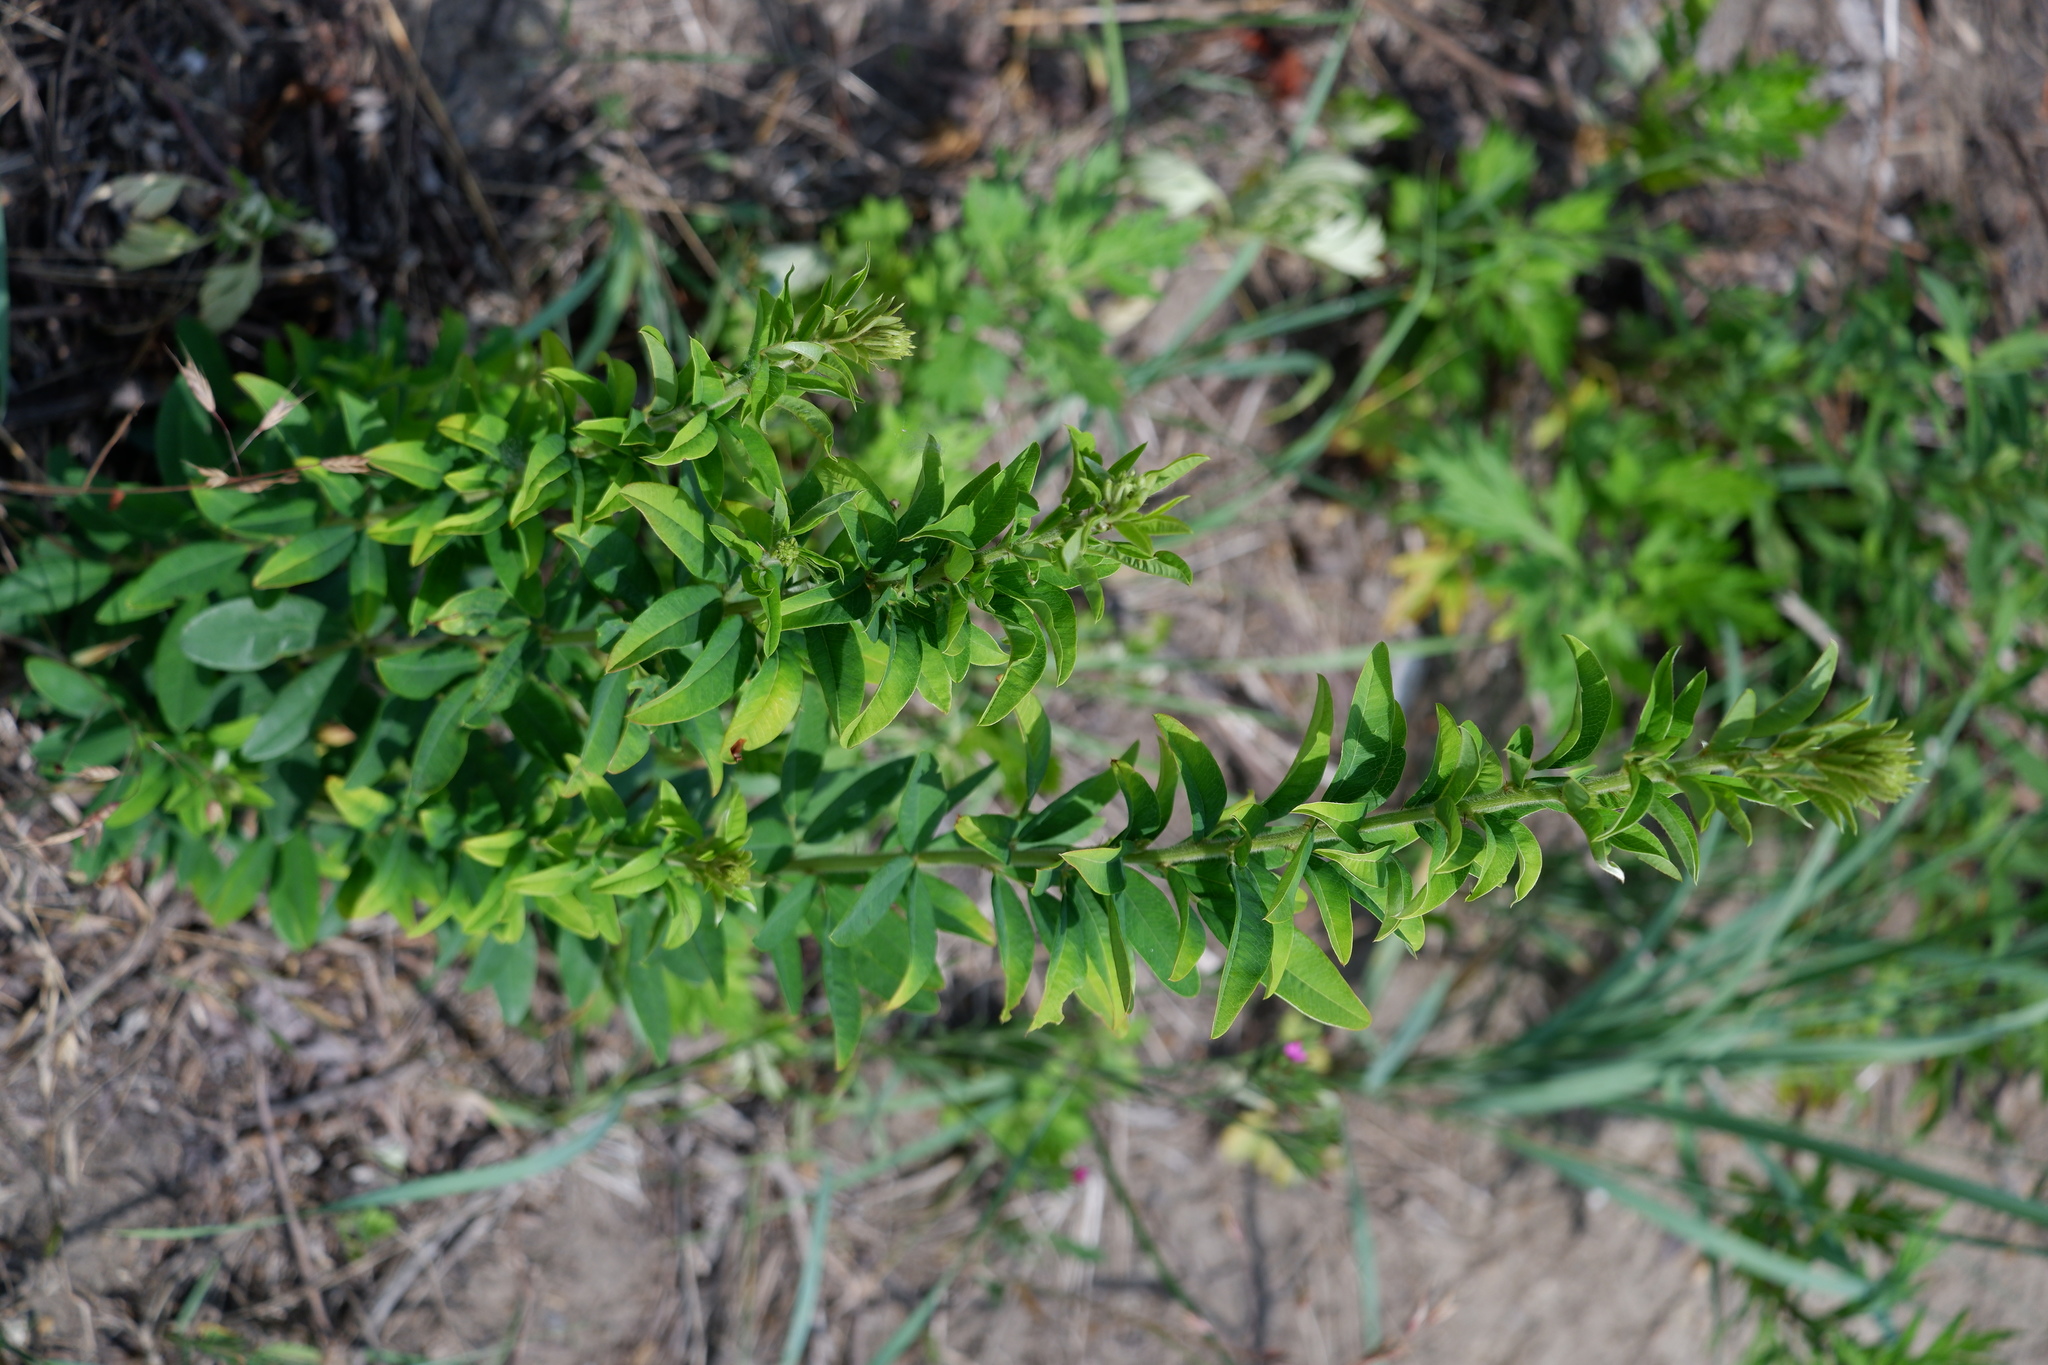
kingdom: Plantae
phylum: Tracheophyta
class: Magnoliopsida
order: Fabales
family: Fabaceae
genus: Lespedeza
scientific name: Lespedeza capitata
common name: Dusty clover
